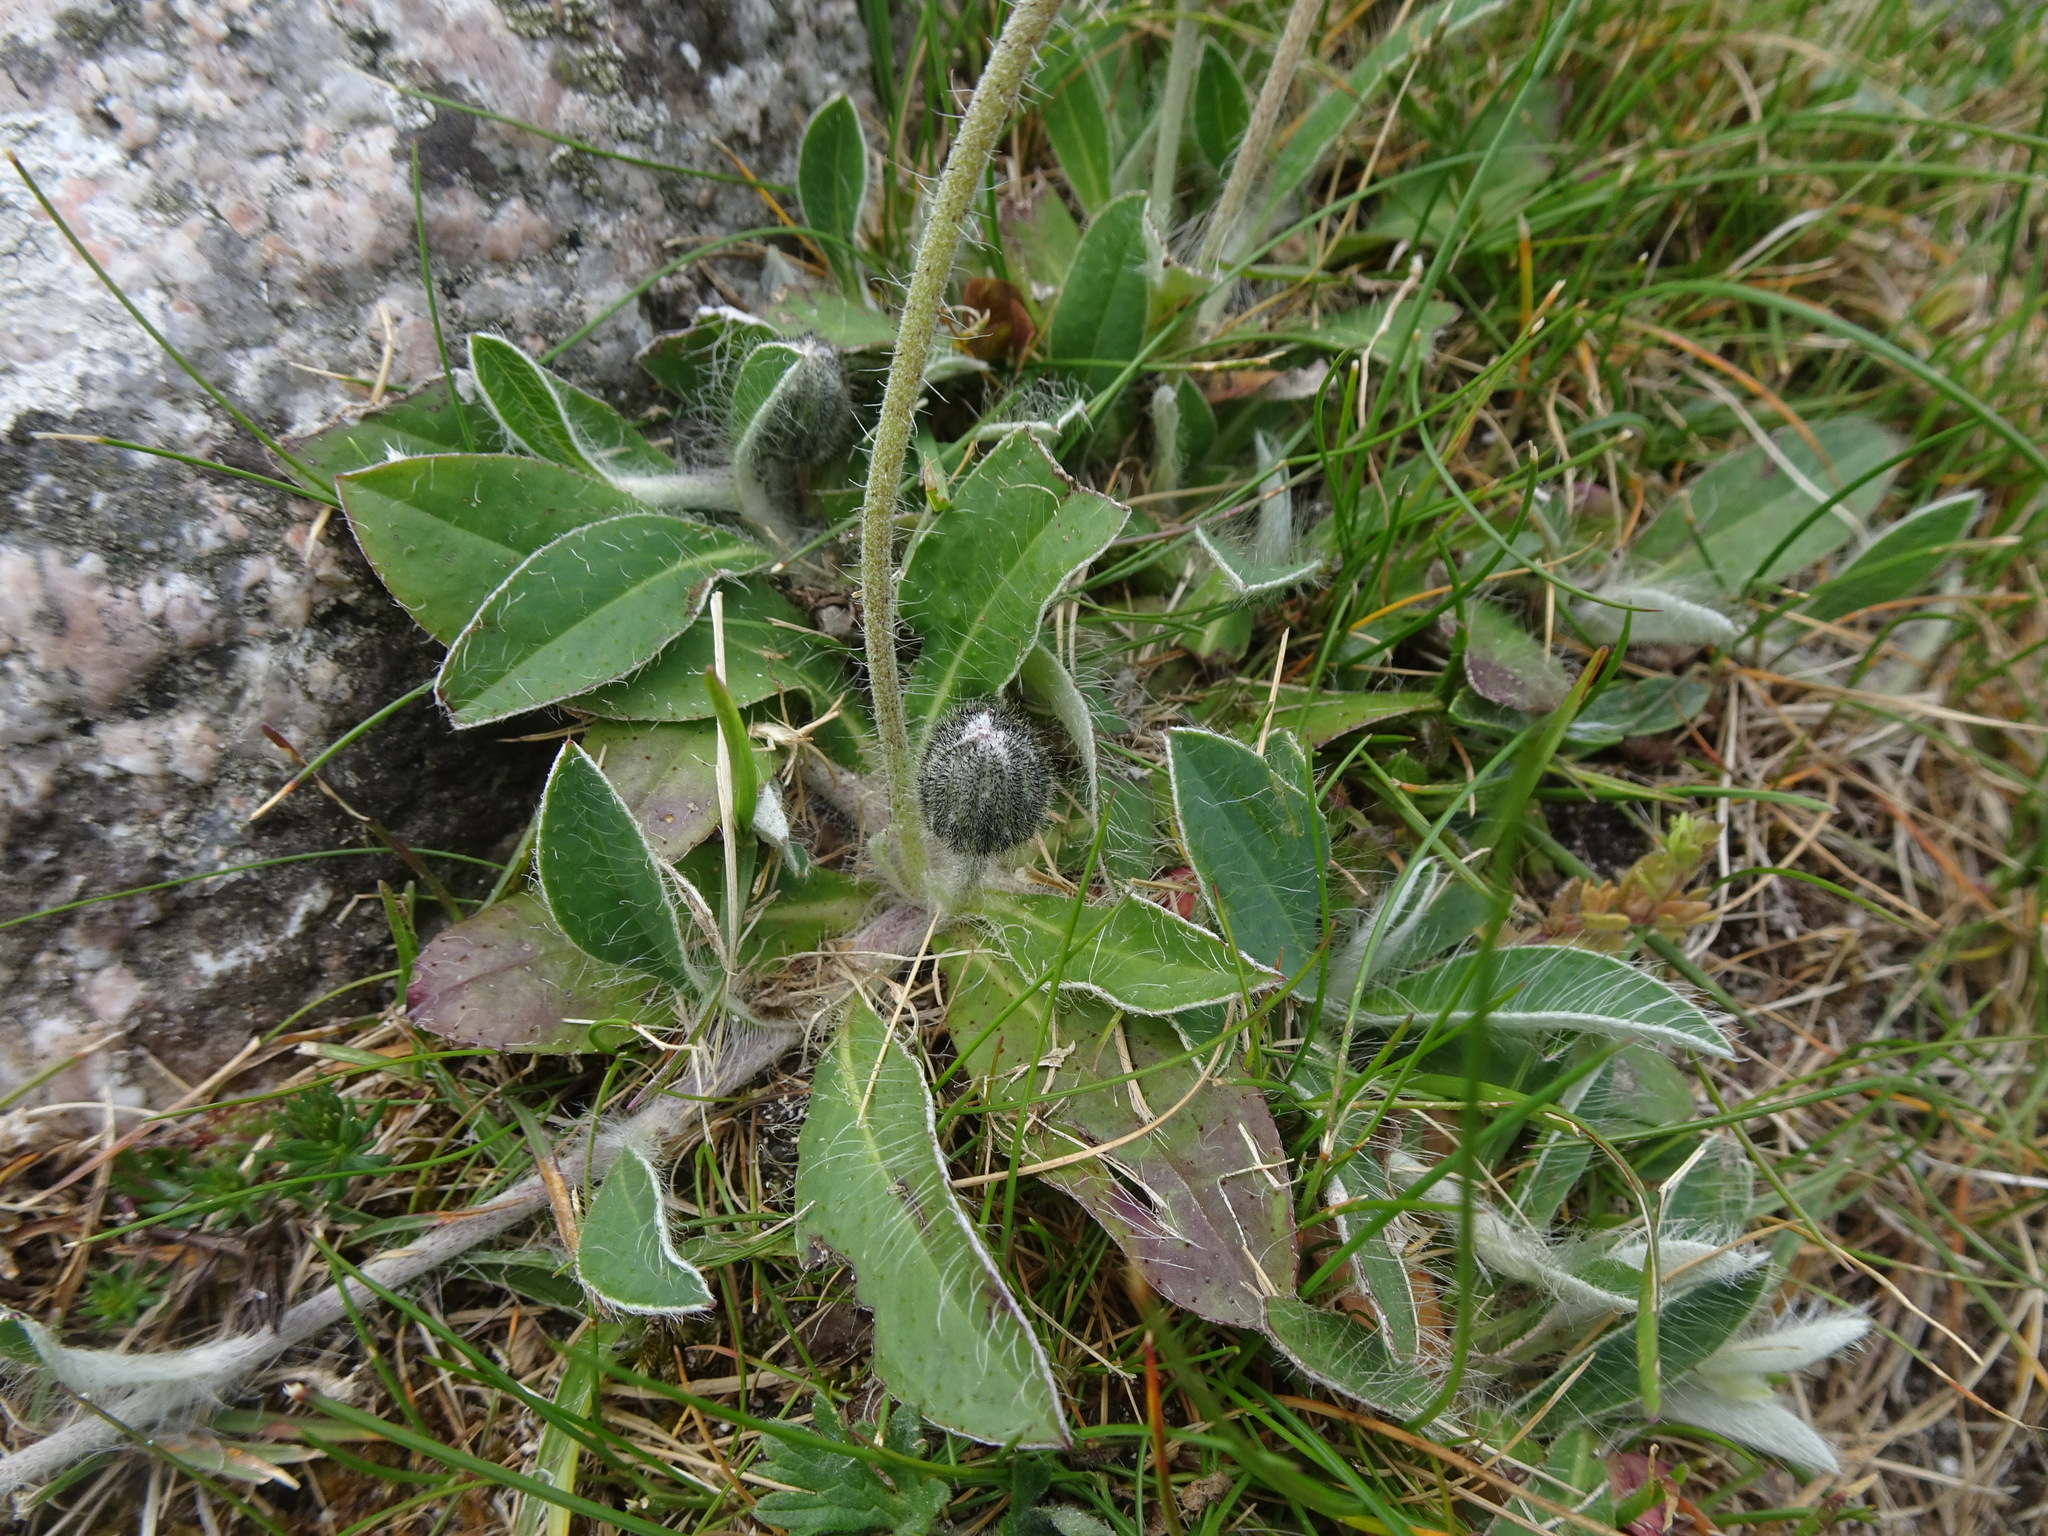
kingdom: Plantae
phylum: Tracheophyta
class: Magnoliopsida
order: Asterales
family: Asteraceae
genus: Pilosella
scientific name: Pilosella officinarum
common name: Mouse-ear hawkweed
